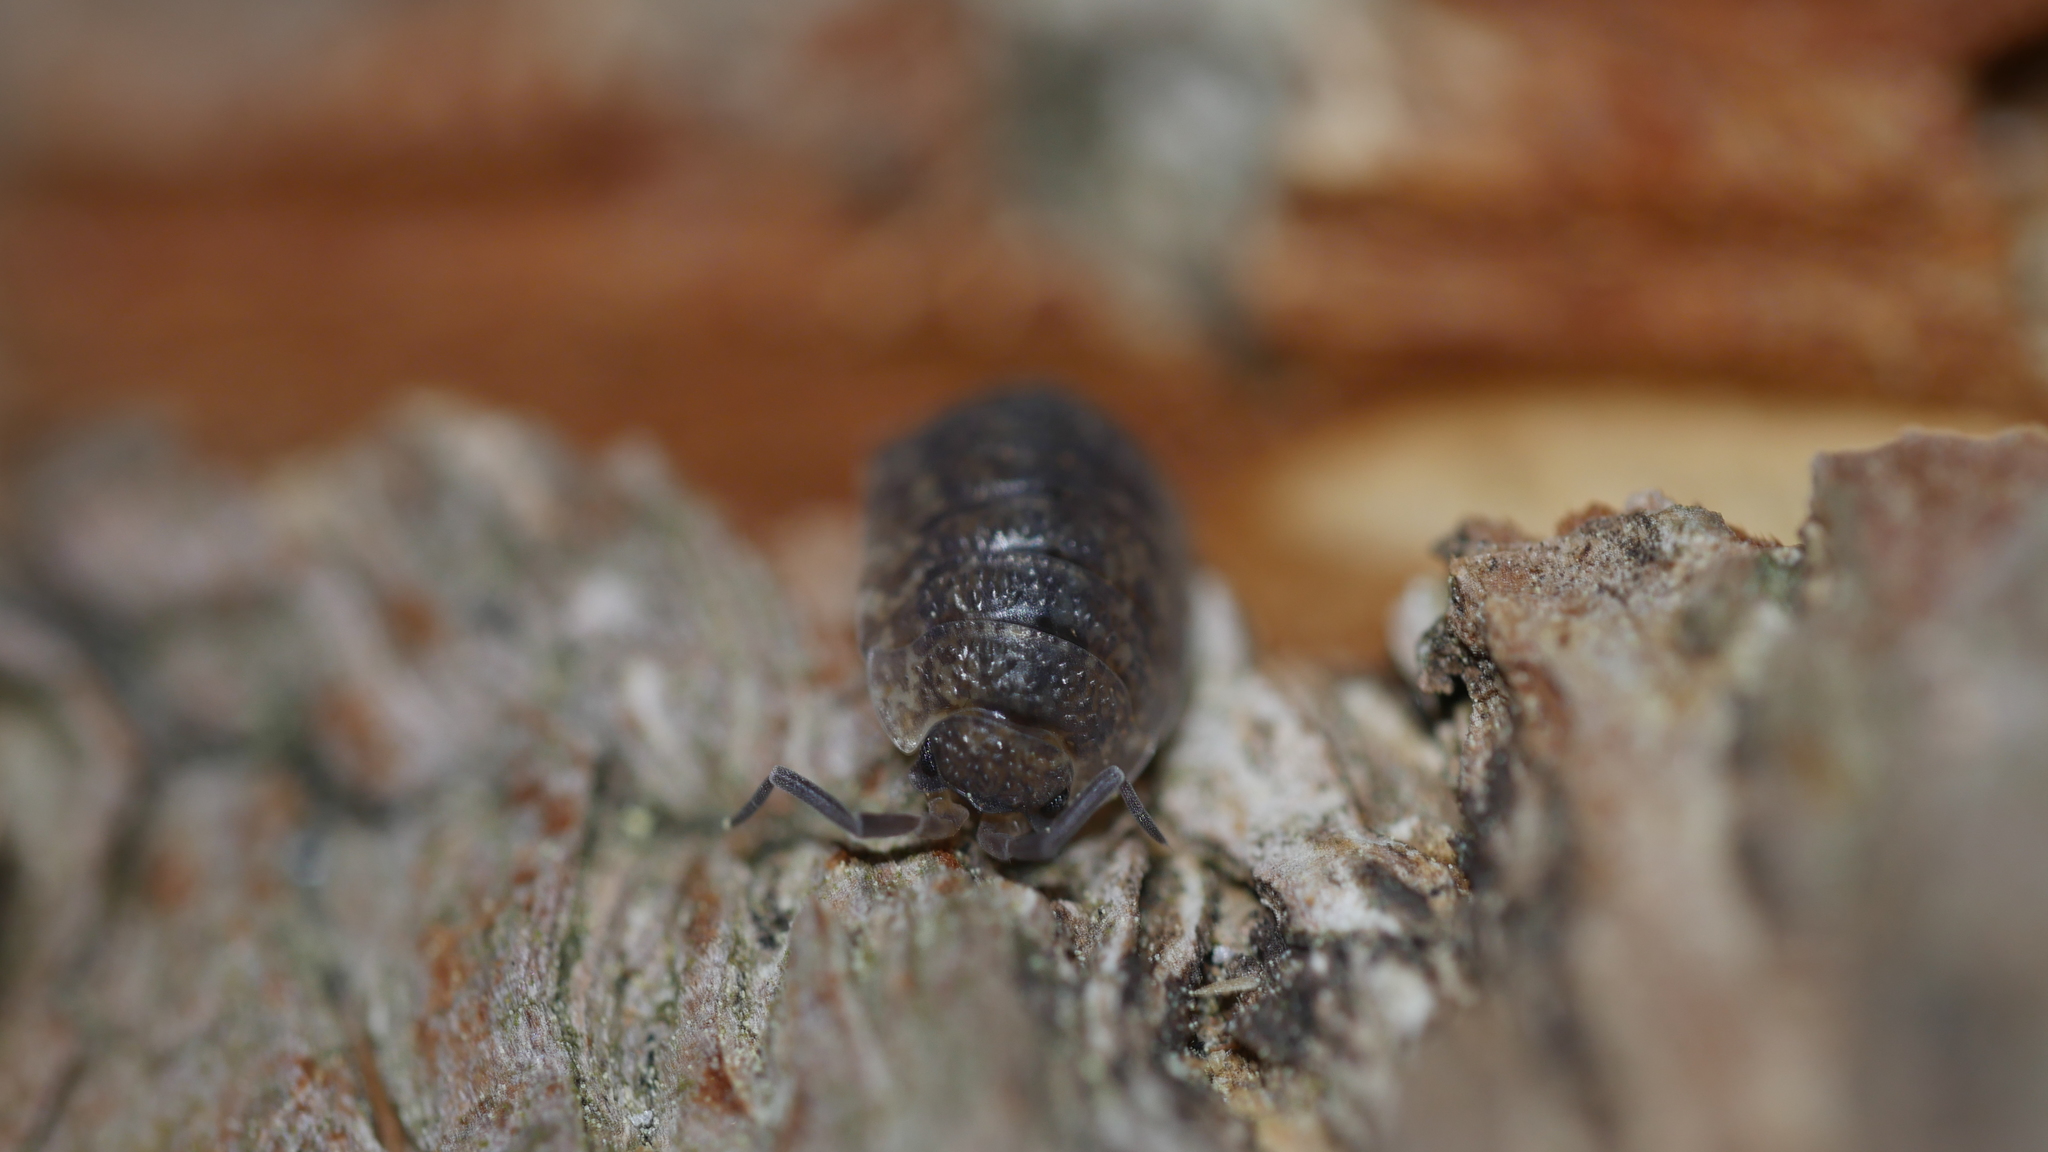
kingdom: Animalia
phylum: Arthropoda
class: Malacostraca
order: Isopoda
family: Porcellionidae
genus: Porcellio
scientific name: Porcellio scaber
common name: Common rough woodlouse
